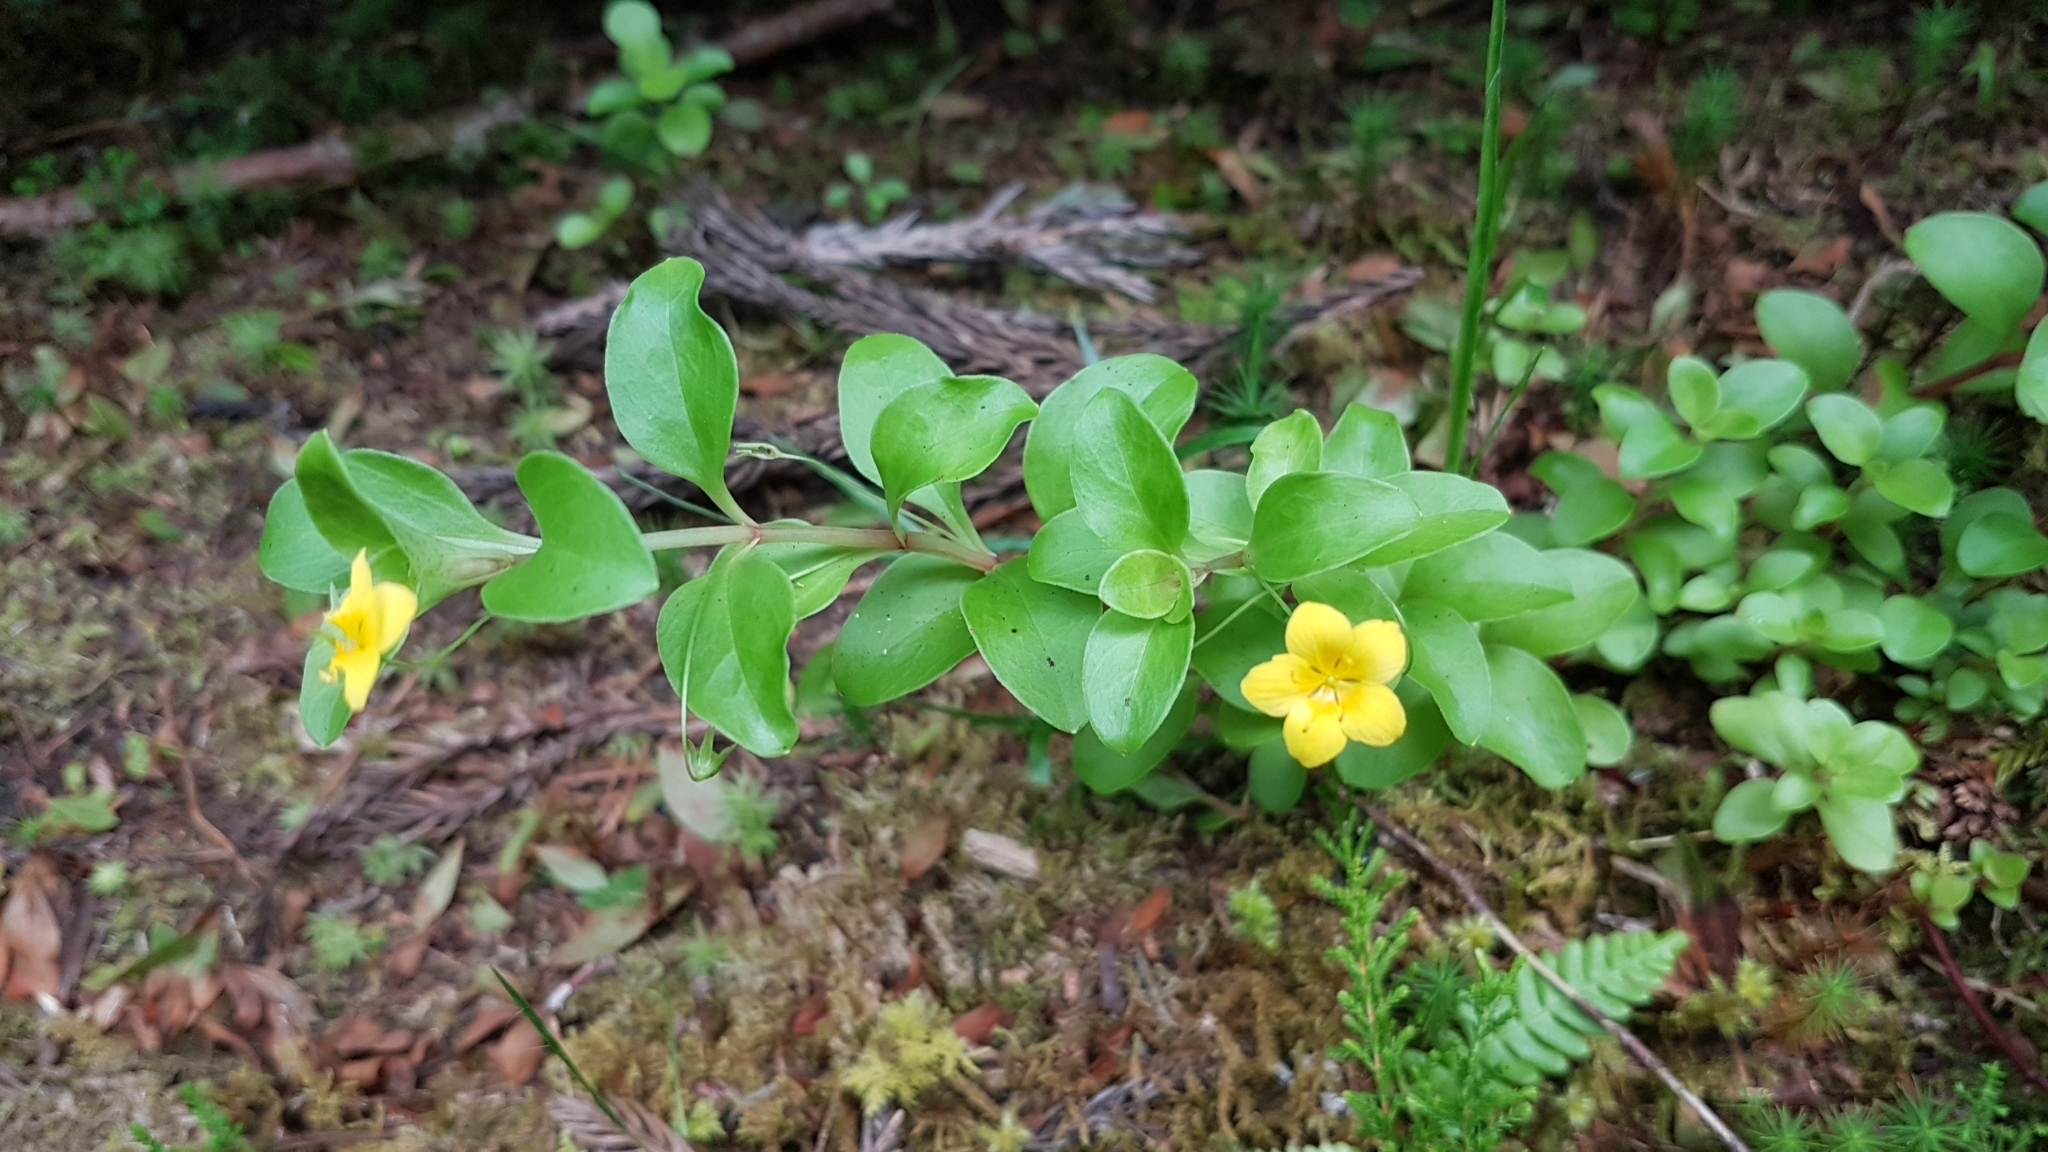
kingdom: Plantae
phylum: Tracheophyta
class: Magnoliopsida
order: Ericales
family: Primulaceae
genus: Lysimachia
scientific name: Lysimachia azorica
